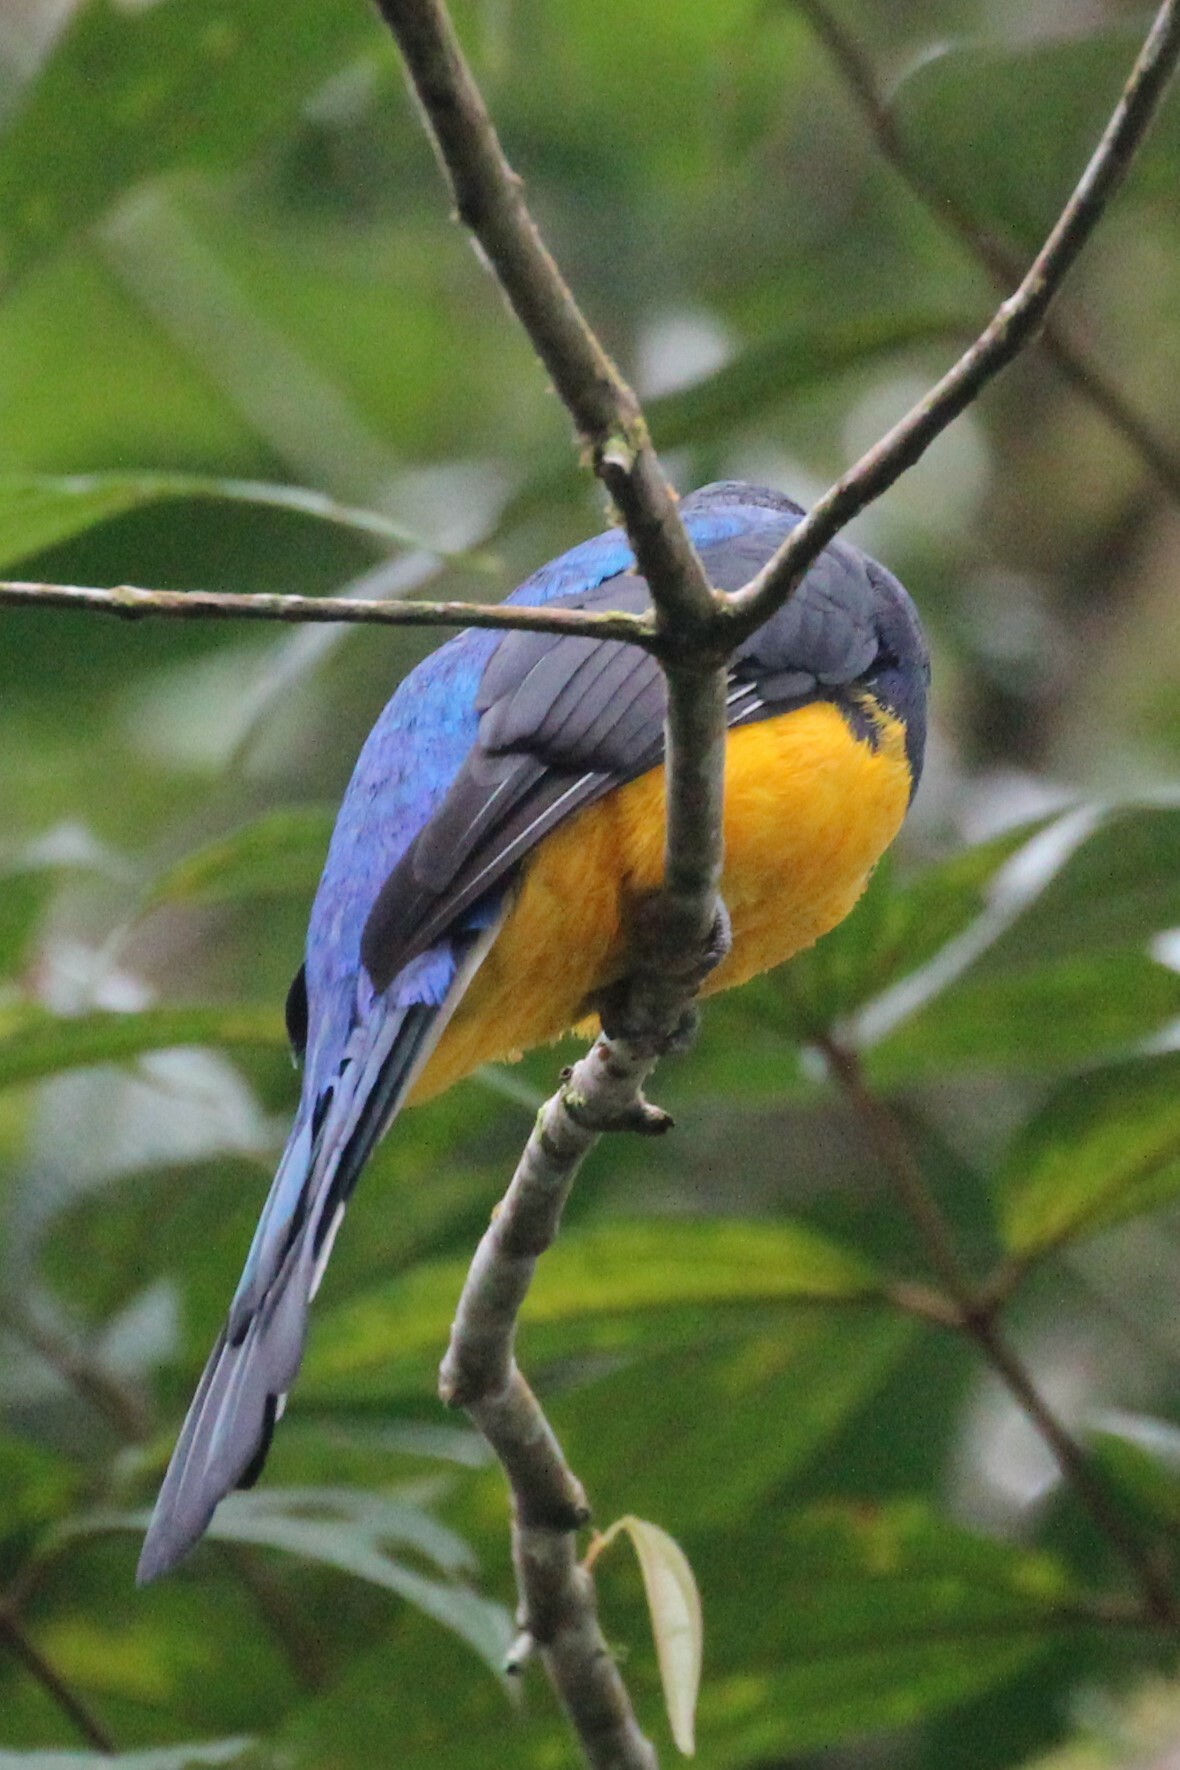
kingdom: Animalia
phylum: Chordata
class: Aves
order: Trogoniformes
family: Trogonidae
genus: Trogon
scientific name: Trogon viridis
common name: Green-backed trogon
